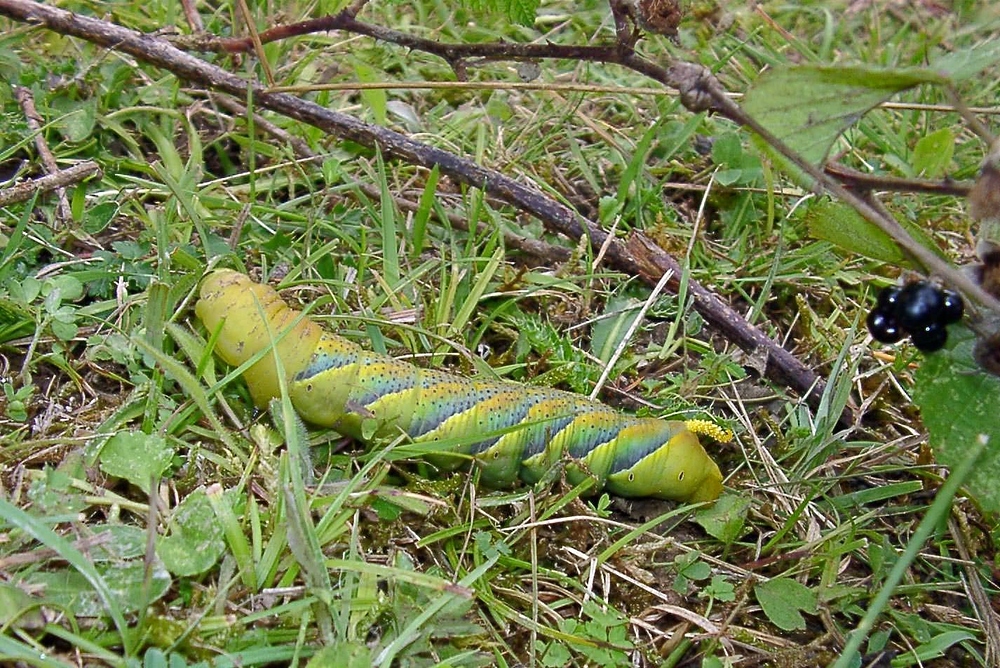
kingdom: Animalia
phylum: Arthropoda
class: Insecta
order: Lepidoptera
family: Sphingidae
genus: Acherontia
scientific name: Acherontia atropos
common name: Death's-head hawk moth
